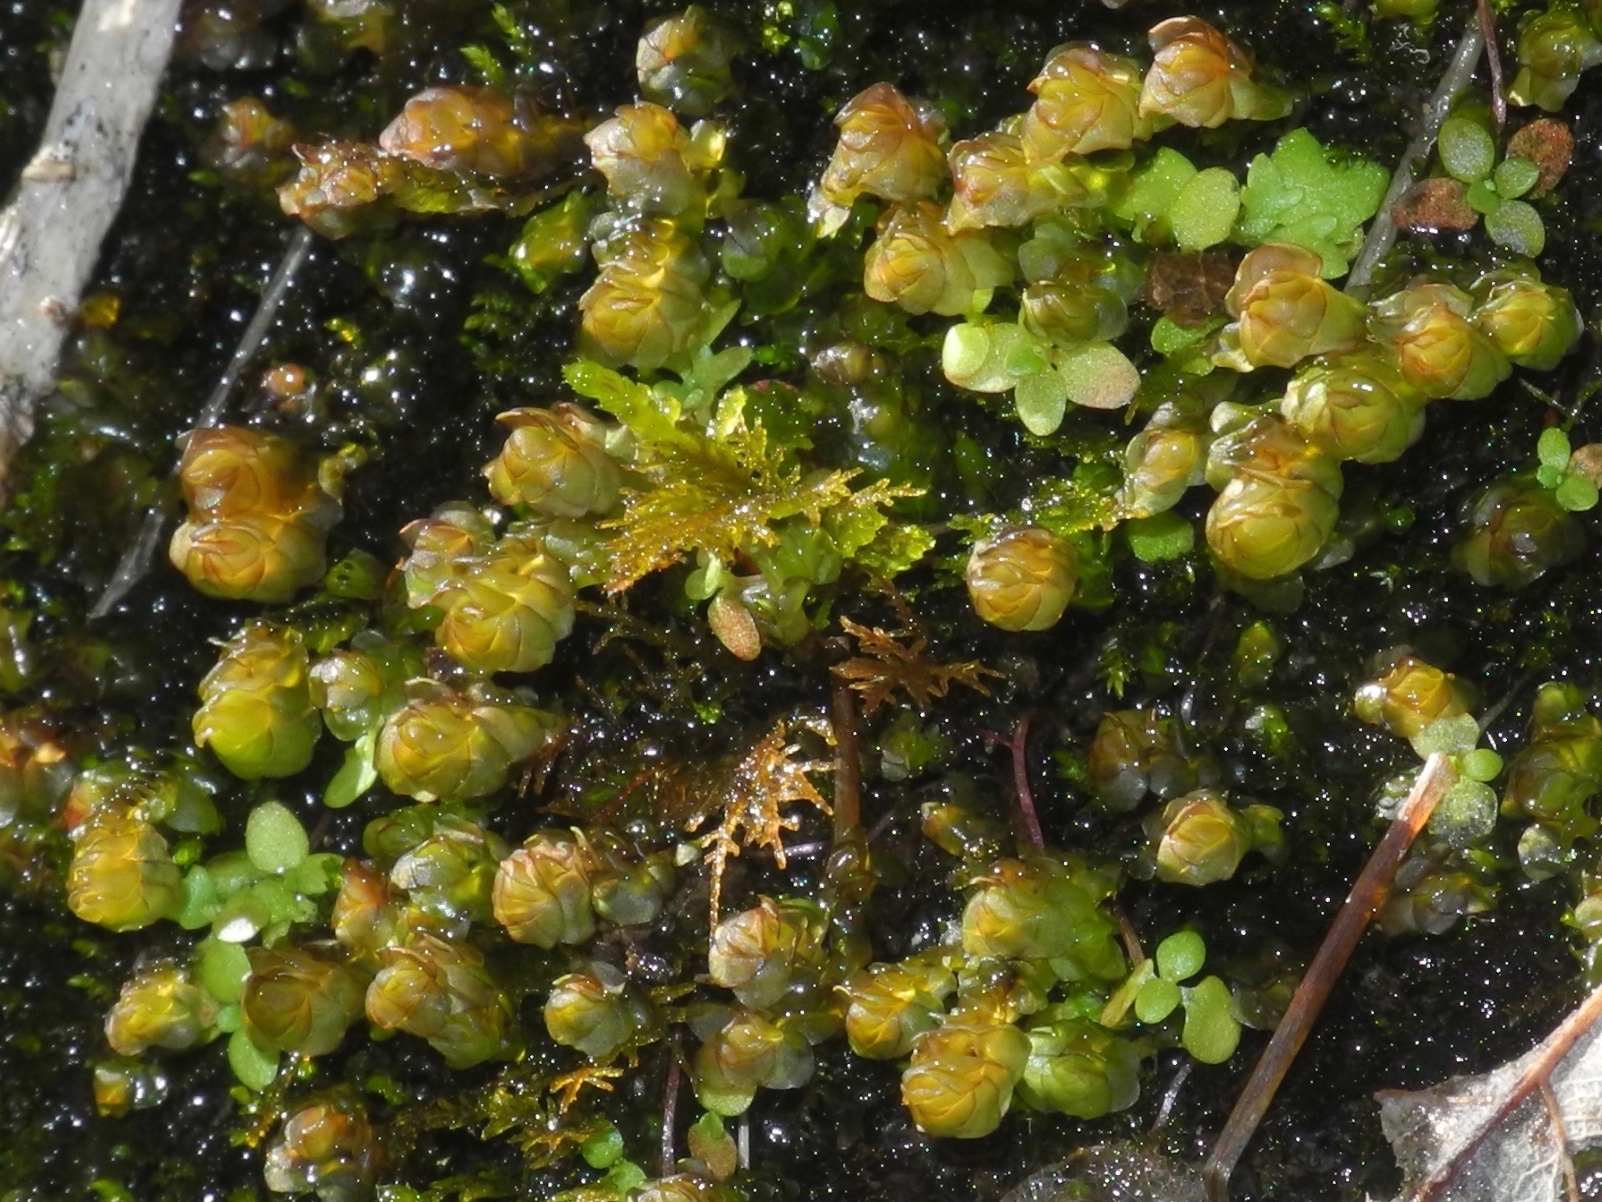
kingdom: Plantae
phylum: Marchantiophyta
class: Jungermanniopsida
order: Jungermanniales
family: Scapaniaceae
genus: Scapania
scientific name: Scapania undulata
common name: Water earwort
